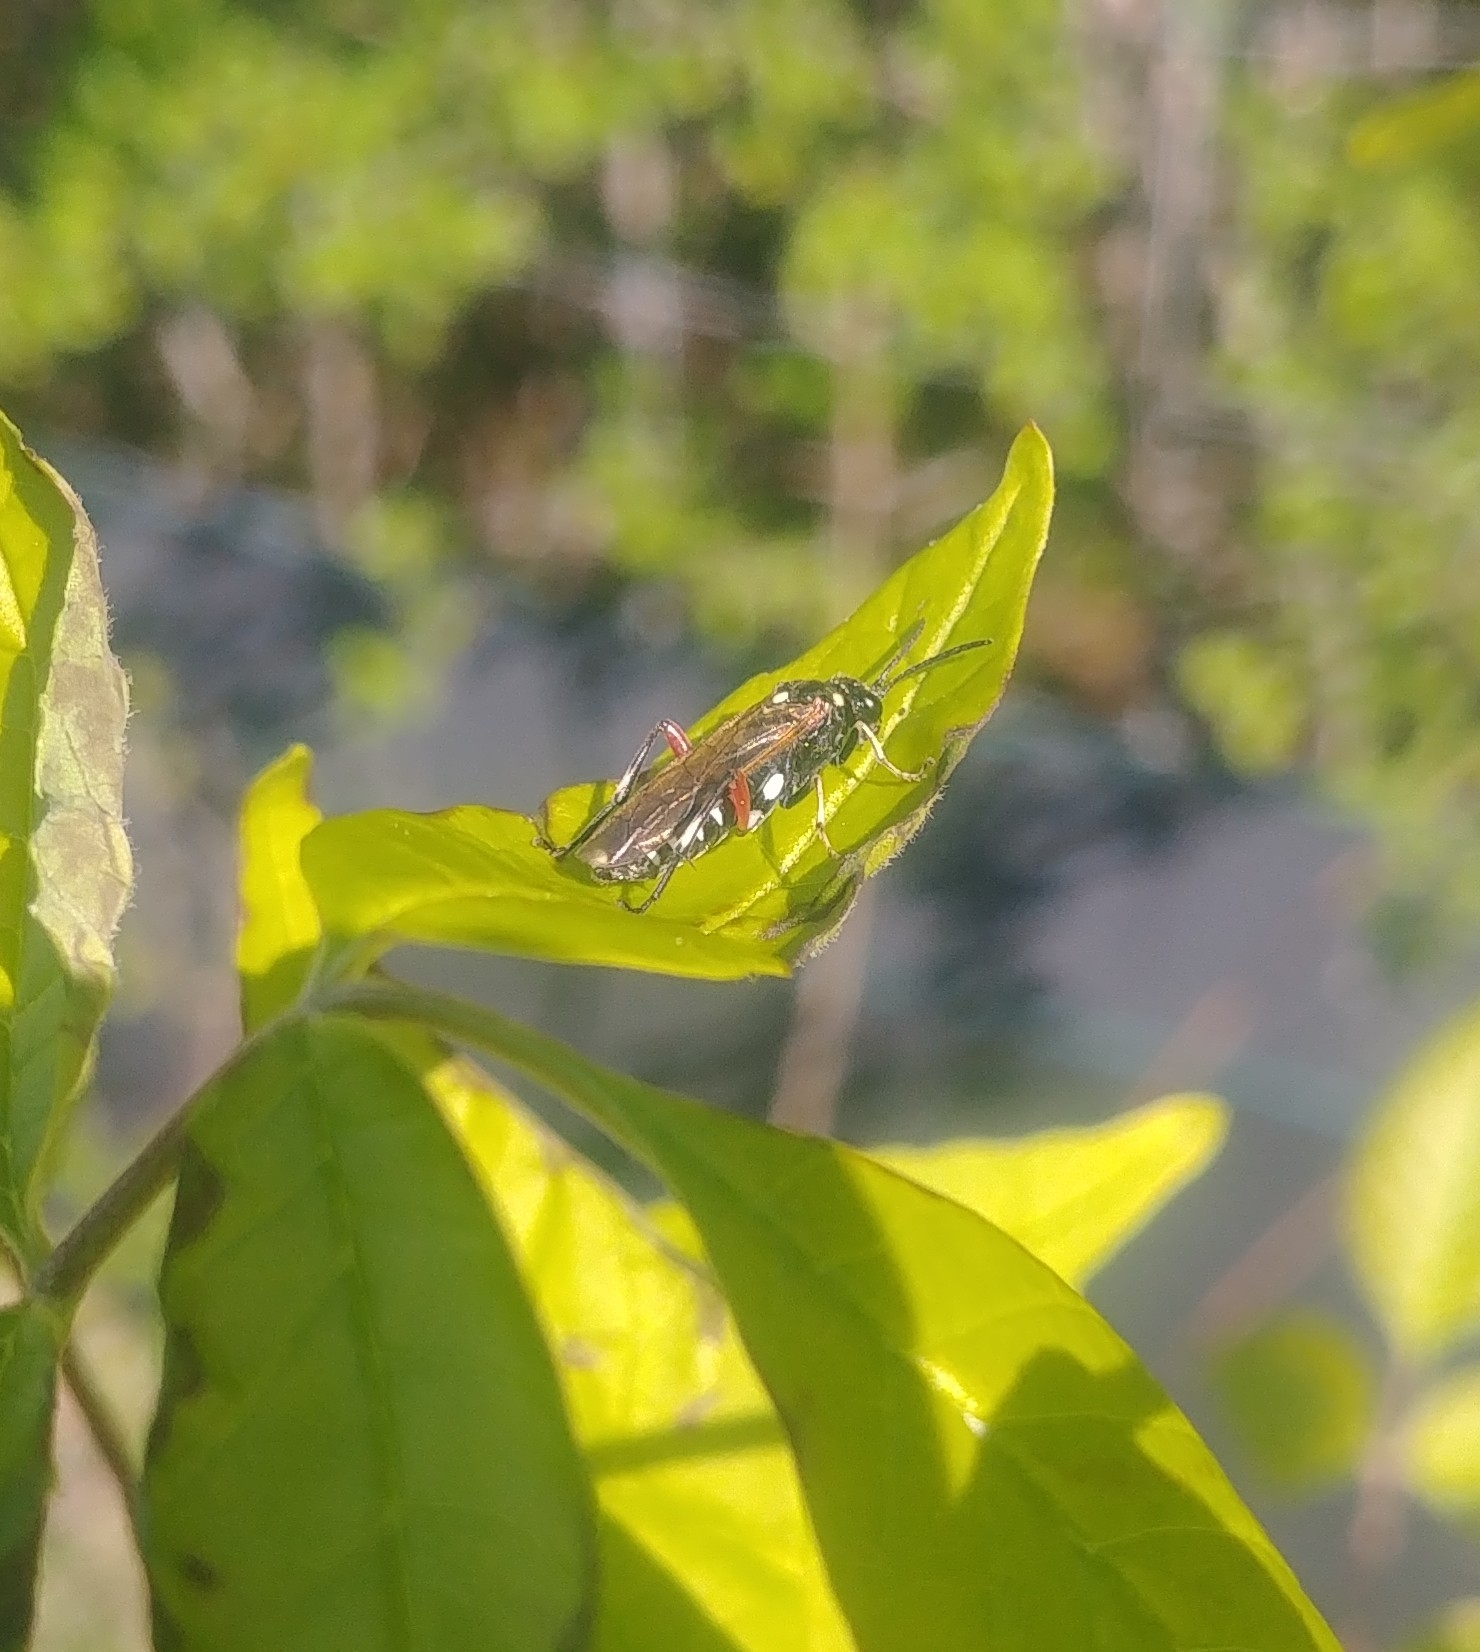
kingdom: Animalia
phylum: Arthropoda
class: Insecta
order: Hymenoptera
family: Tenthredinidae
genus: Macrophya
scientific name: Macrophya punctumalbum
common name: Sawfly
